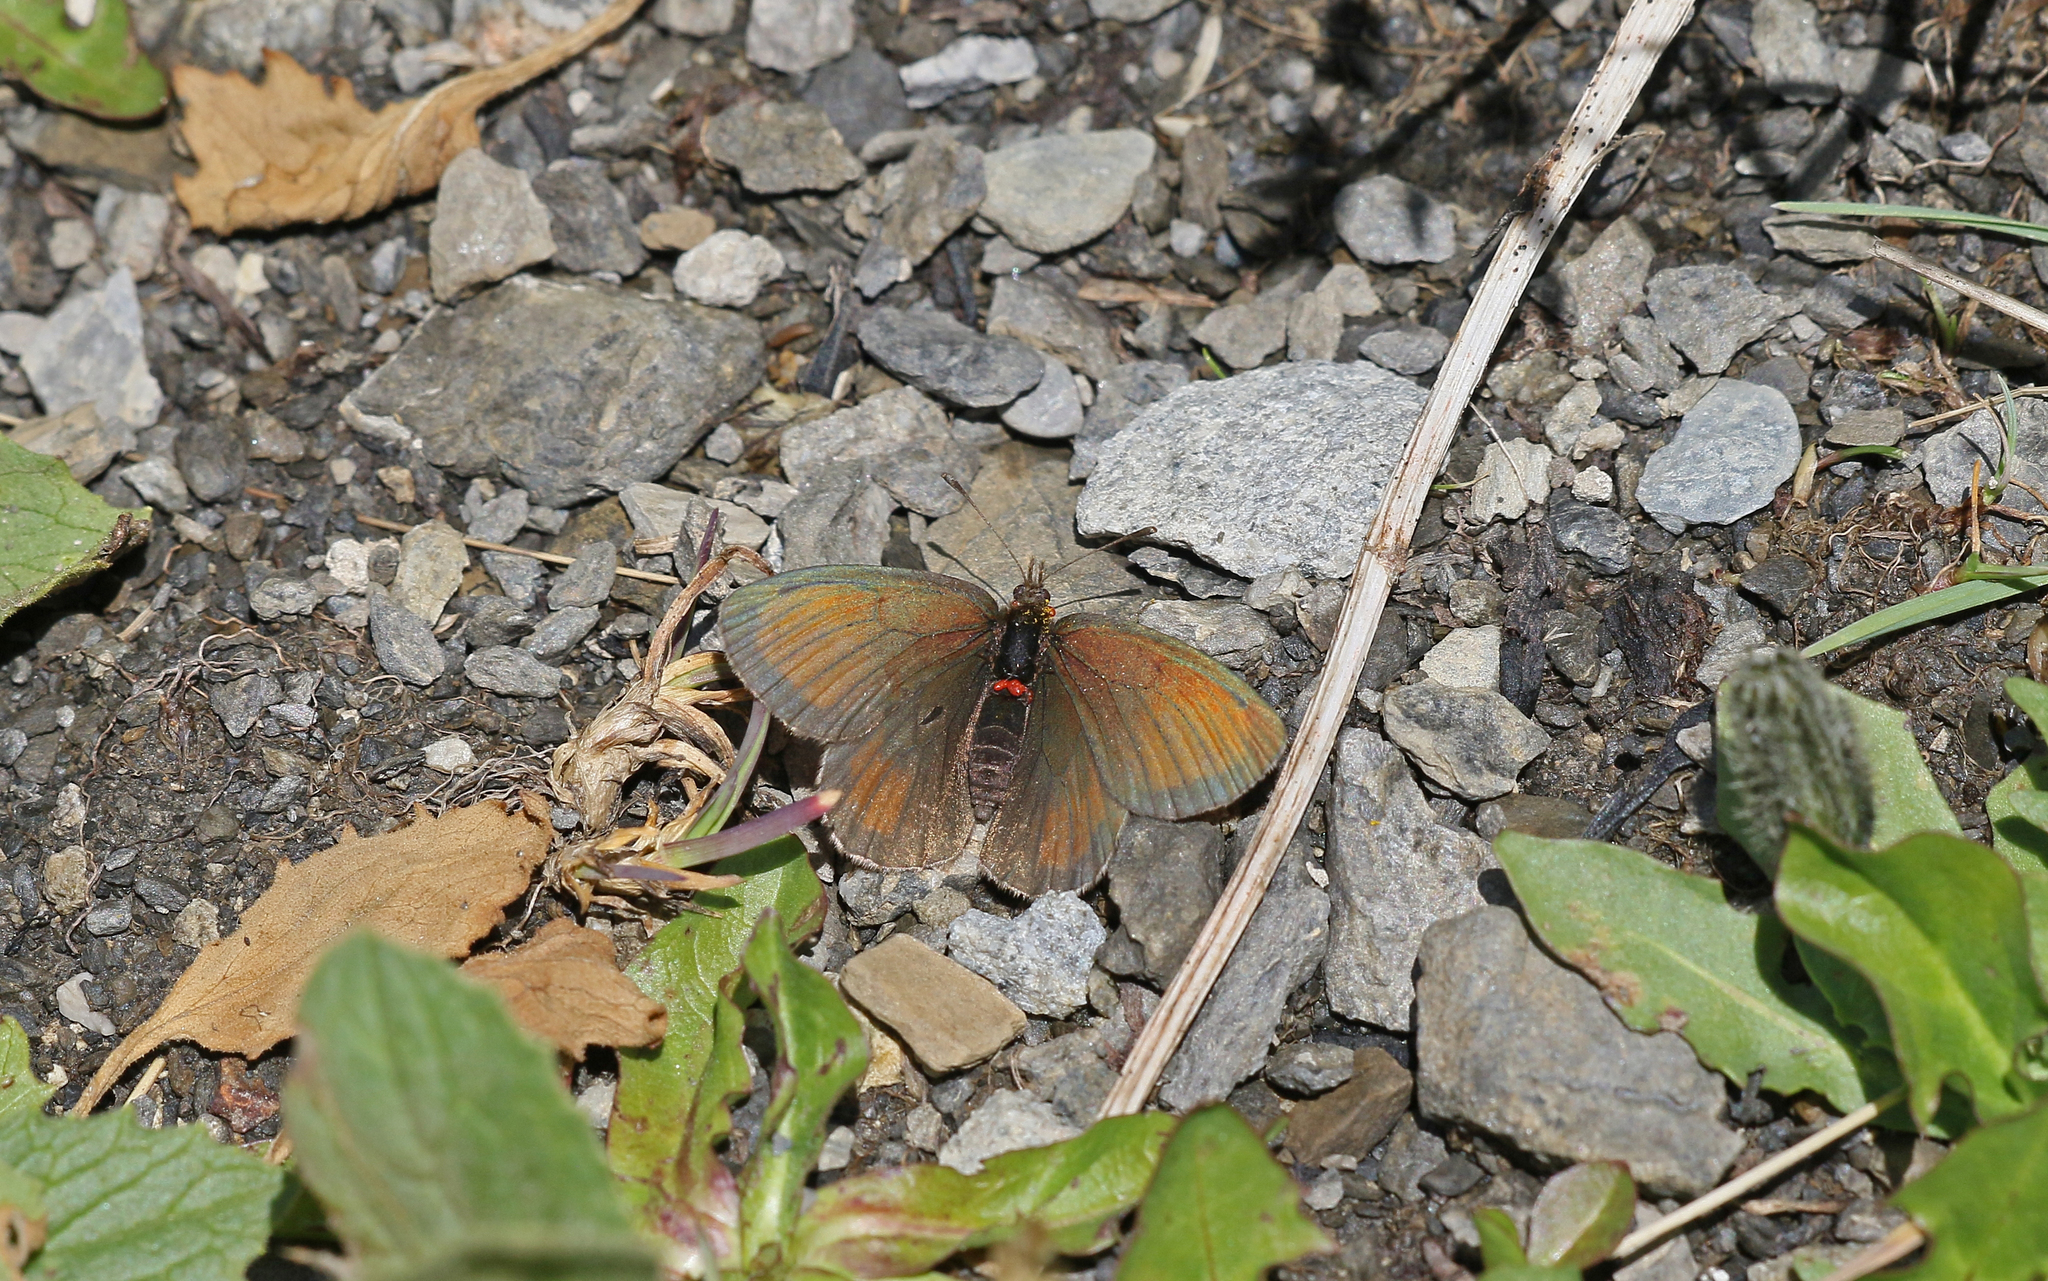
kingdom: Animalia
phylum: Arthropoda
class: Insecta
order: Lepidoptera
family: Nymphalidae
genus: Erebia
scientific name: Erebia gorge
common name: Silky ringlet
